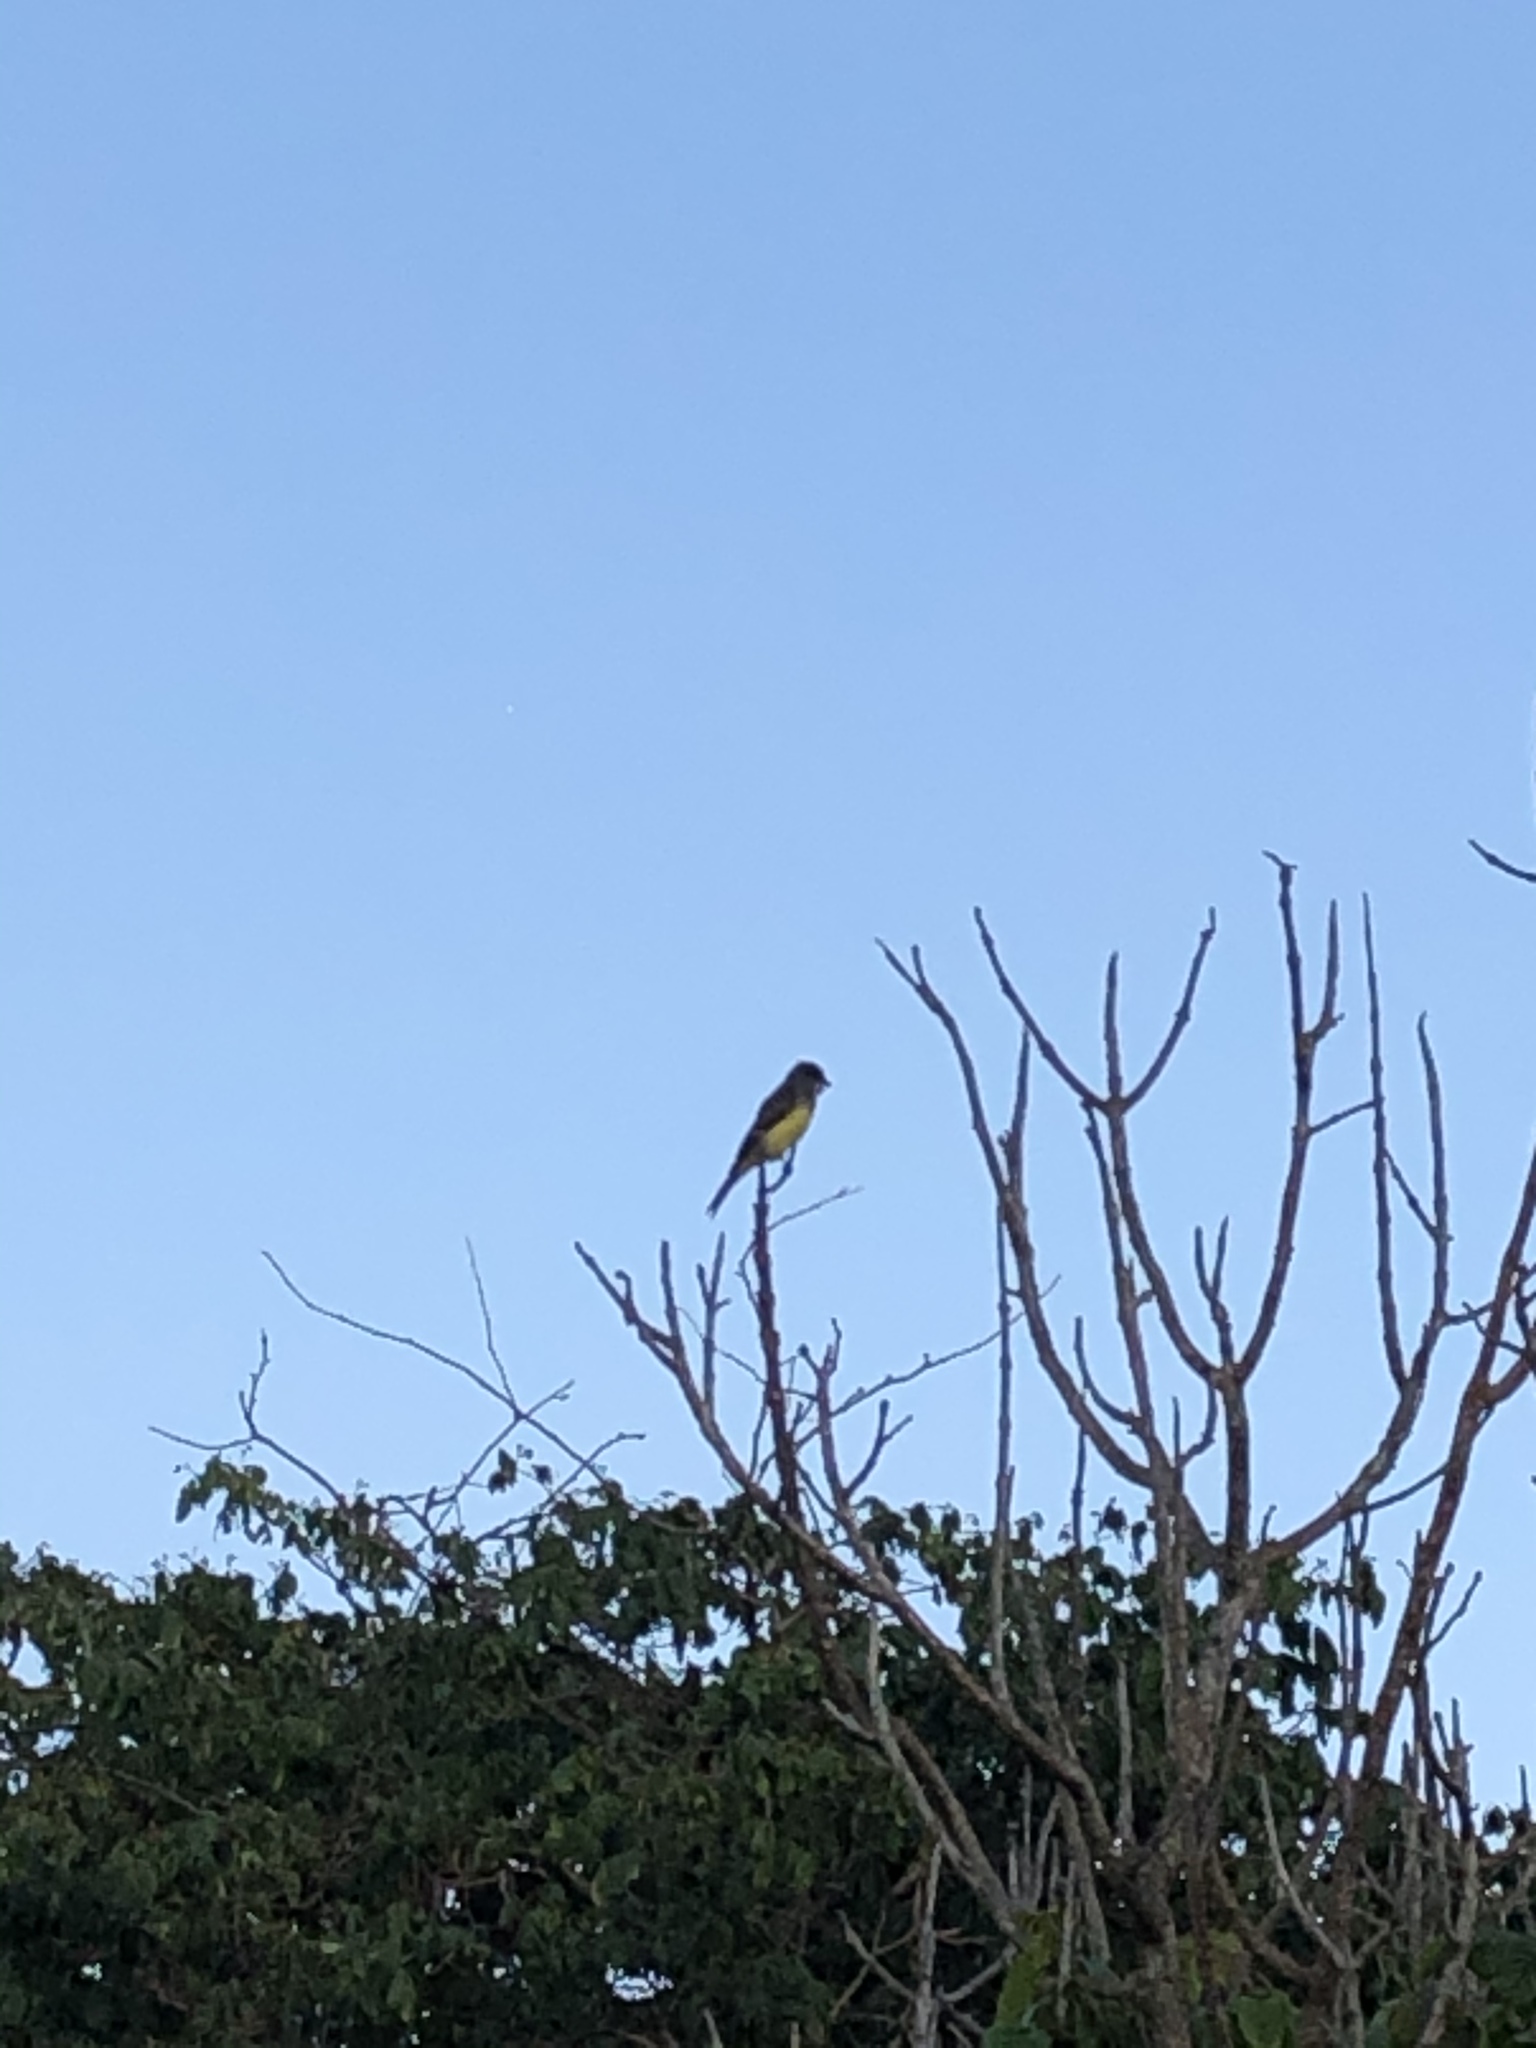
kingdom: Animalia
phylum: Chordata
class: Aves
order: Passeriformes
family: Tyrannidae
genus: Tyrannus
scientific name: Tyrannus melancholicus
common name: Tropical kingbird
